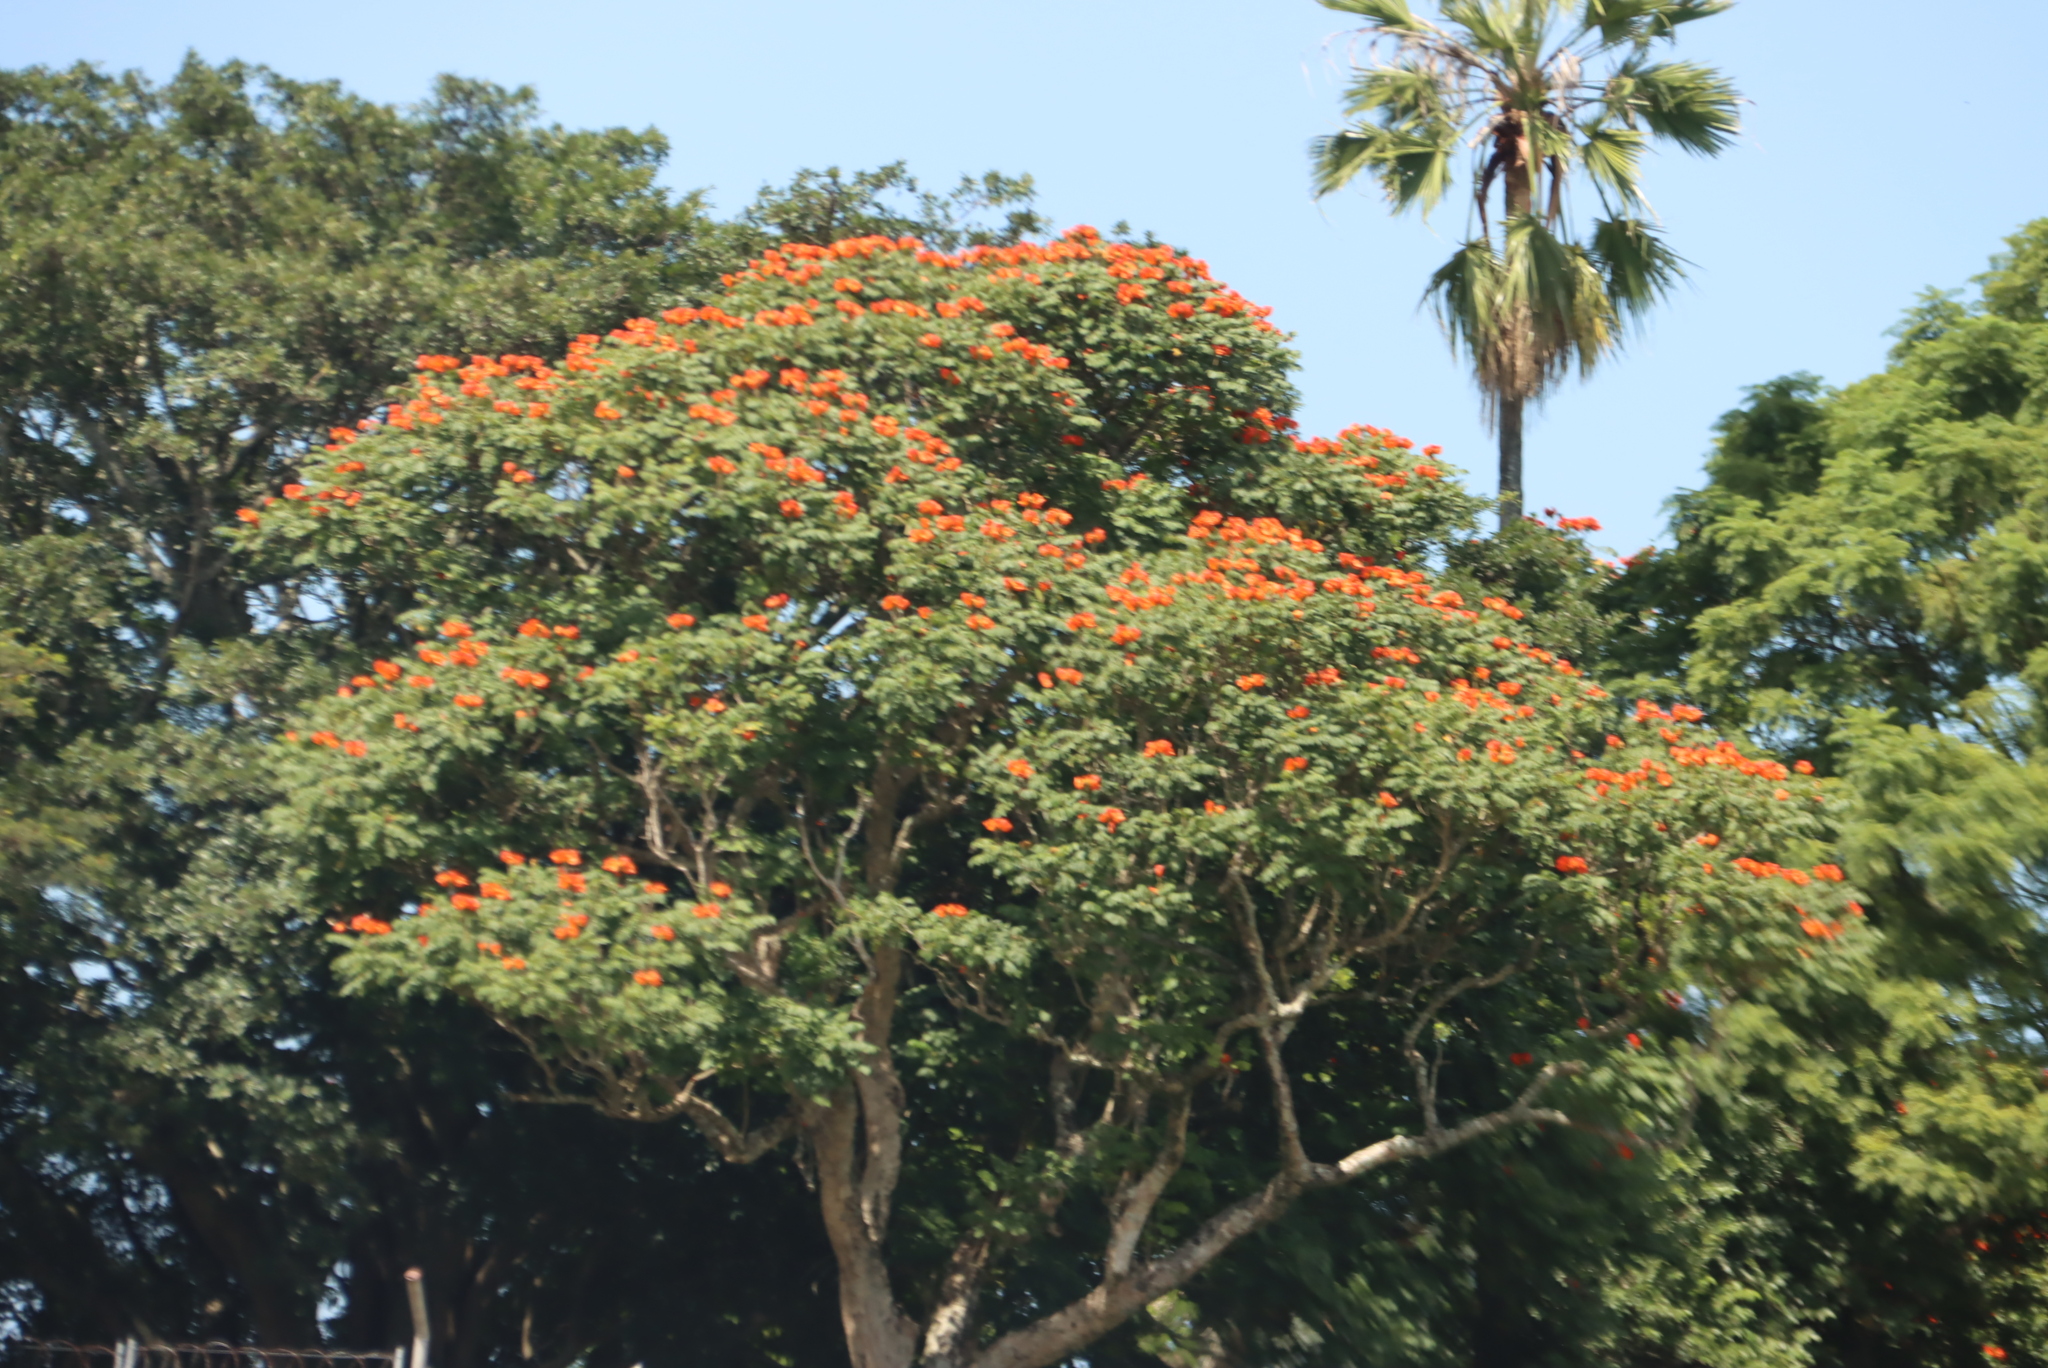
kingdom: Plantae
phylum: Tracheophyta
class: Magnoliopsida
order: Lamiales
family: Bignoniaceae
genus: Spathodea
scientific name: Spathodea campanulata
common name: African tuliptree
